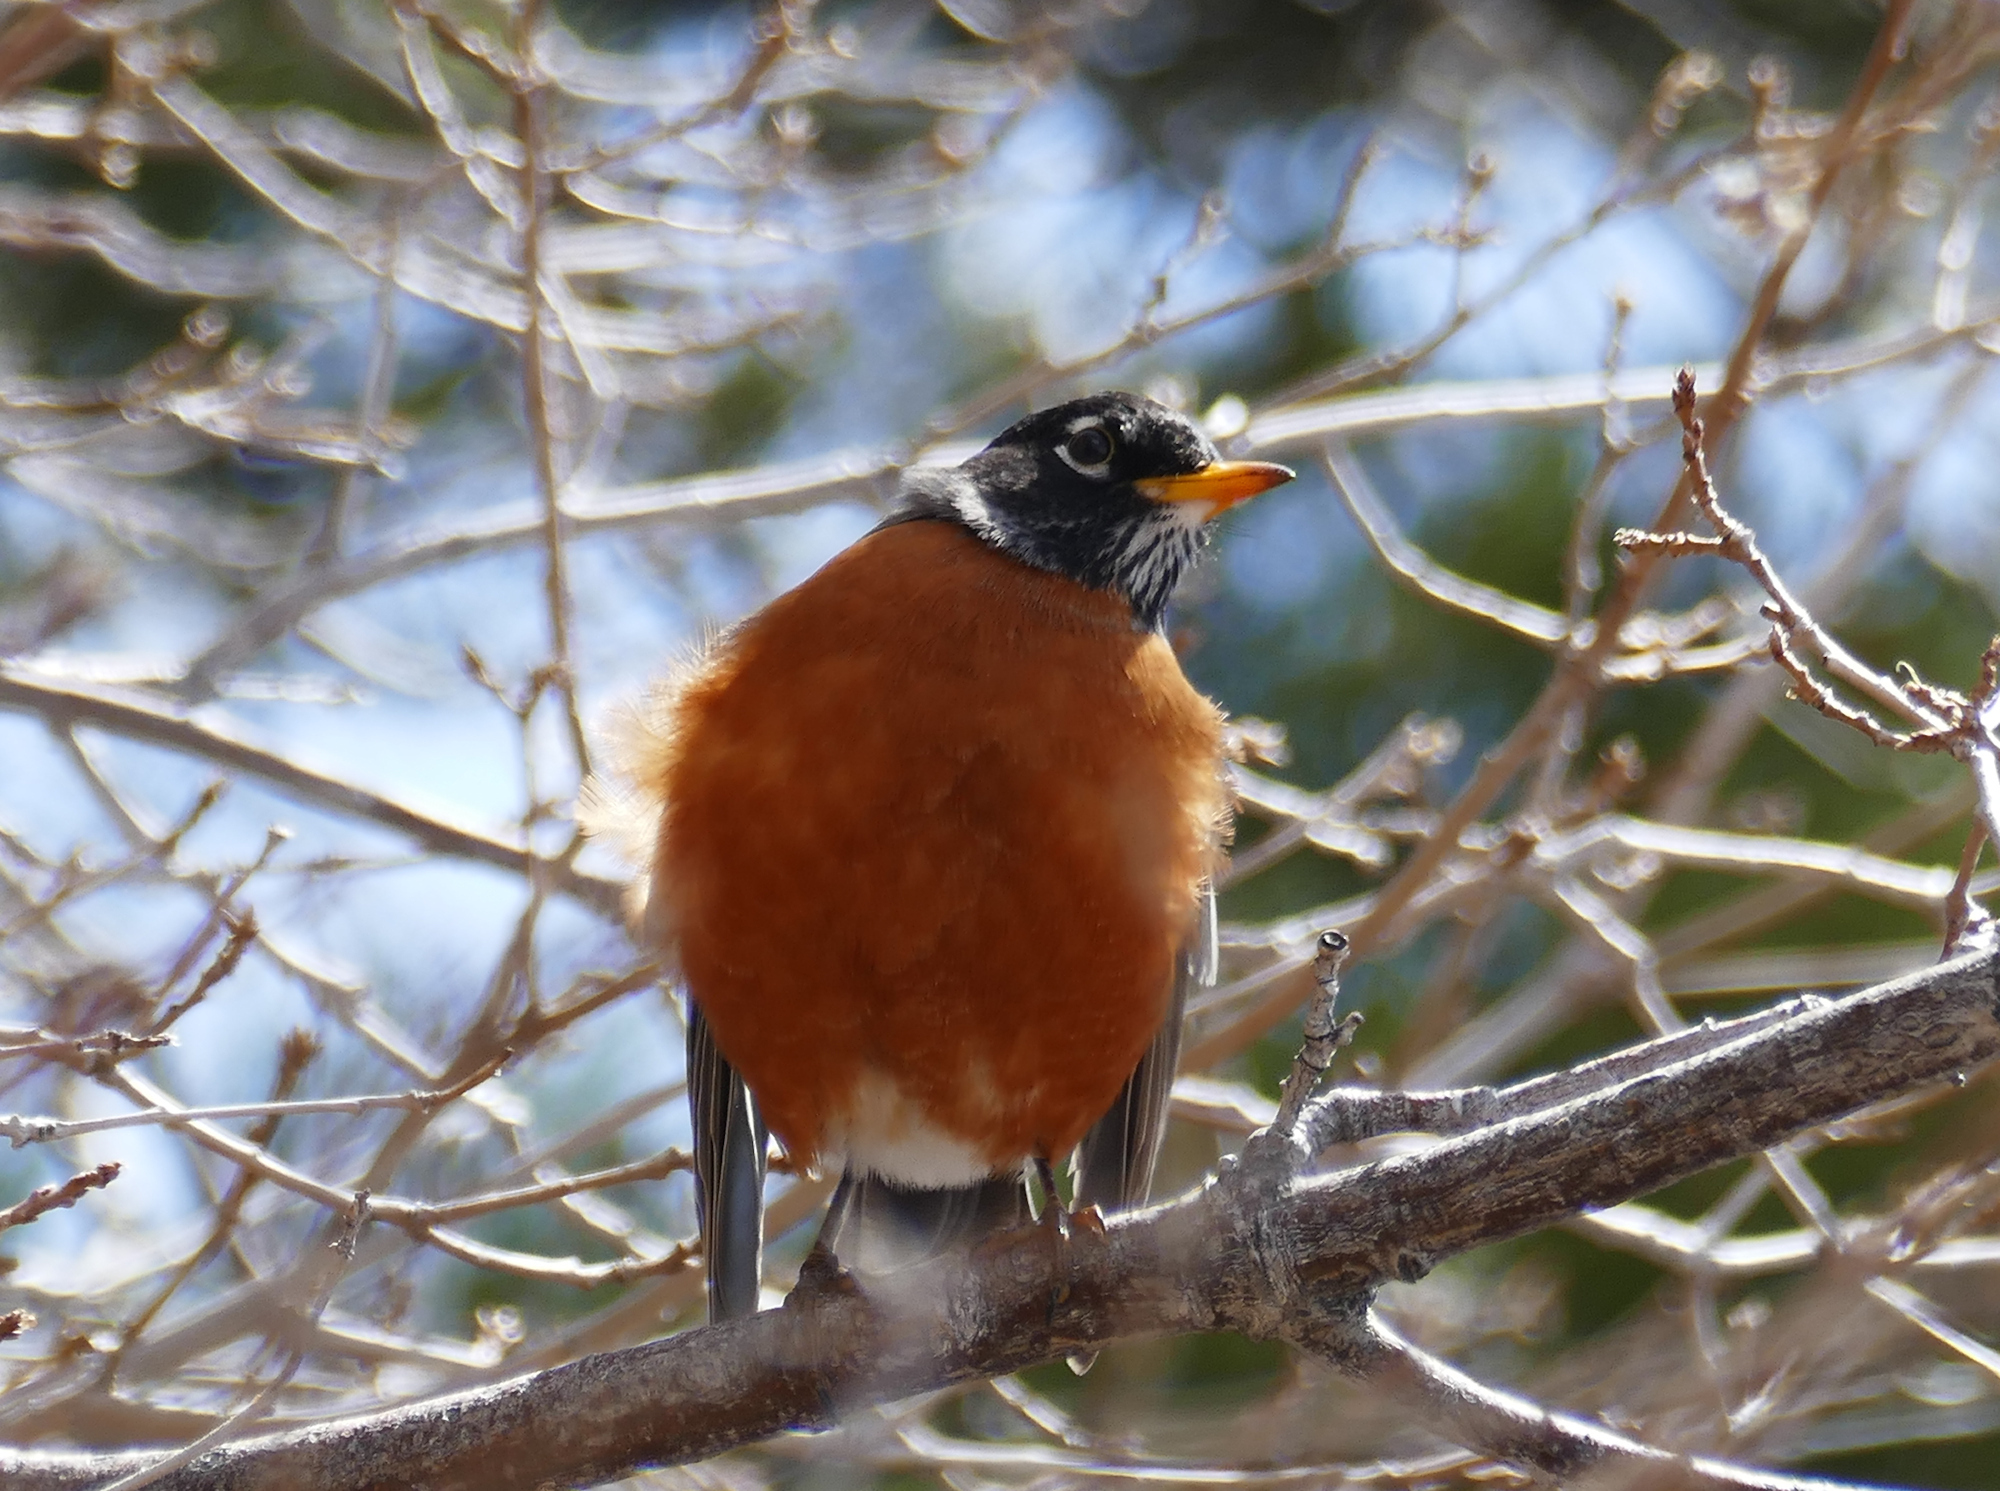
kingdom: Animalia
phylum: Chordata
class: Aves
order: Passeriformes
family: Turdidae
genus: Turdus
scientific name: Turdus migratorius
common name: American robin
